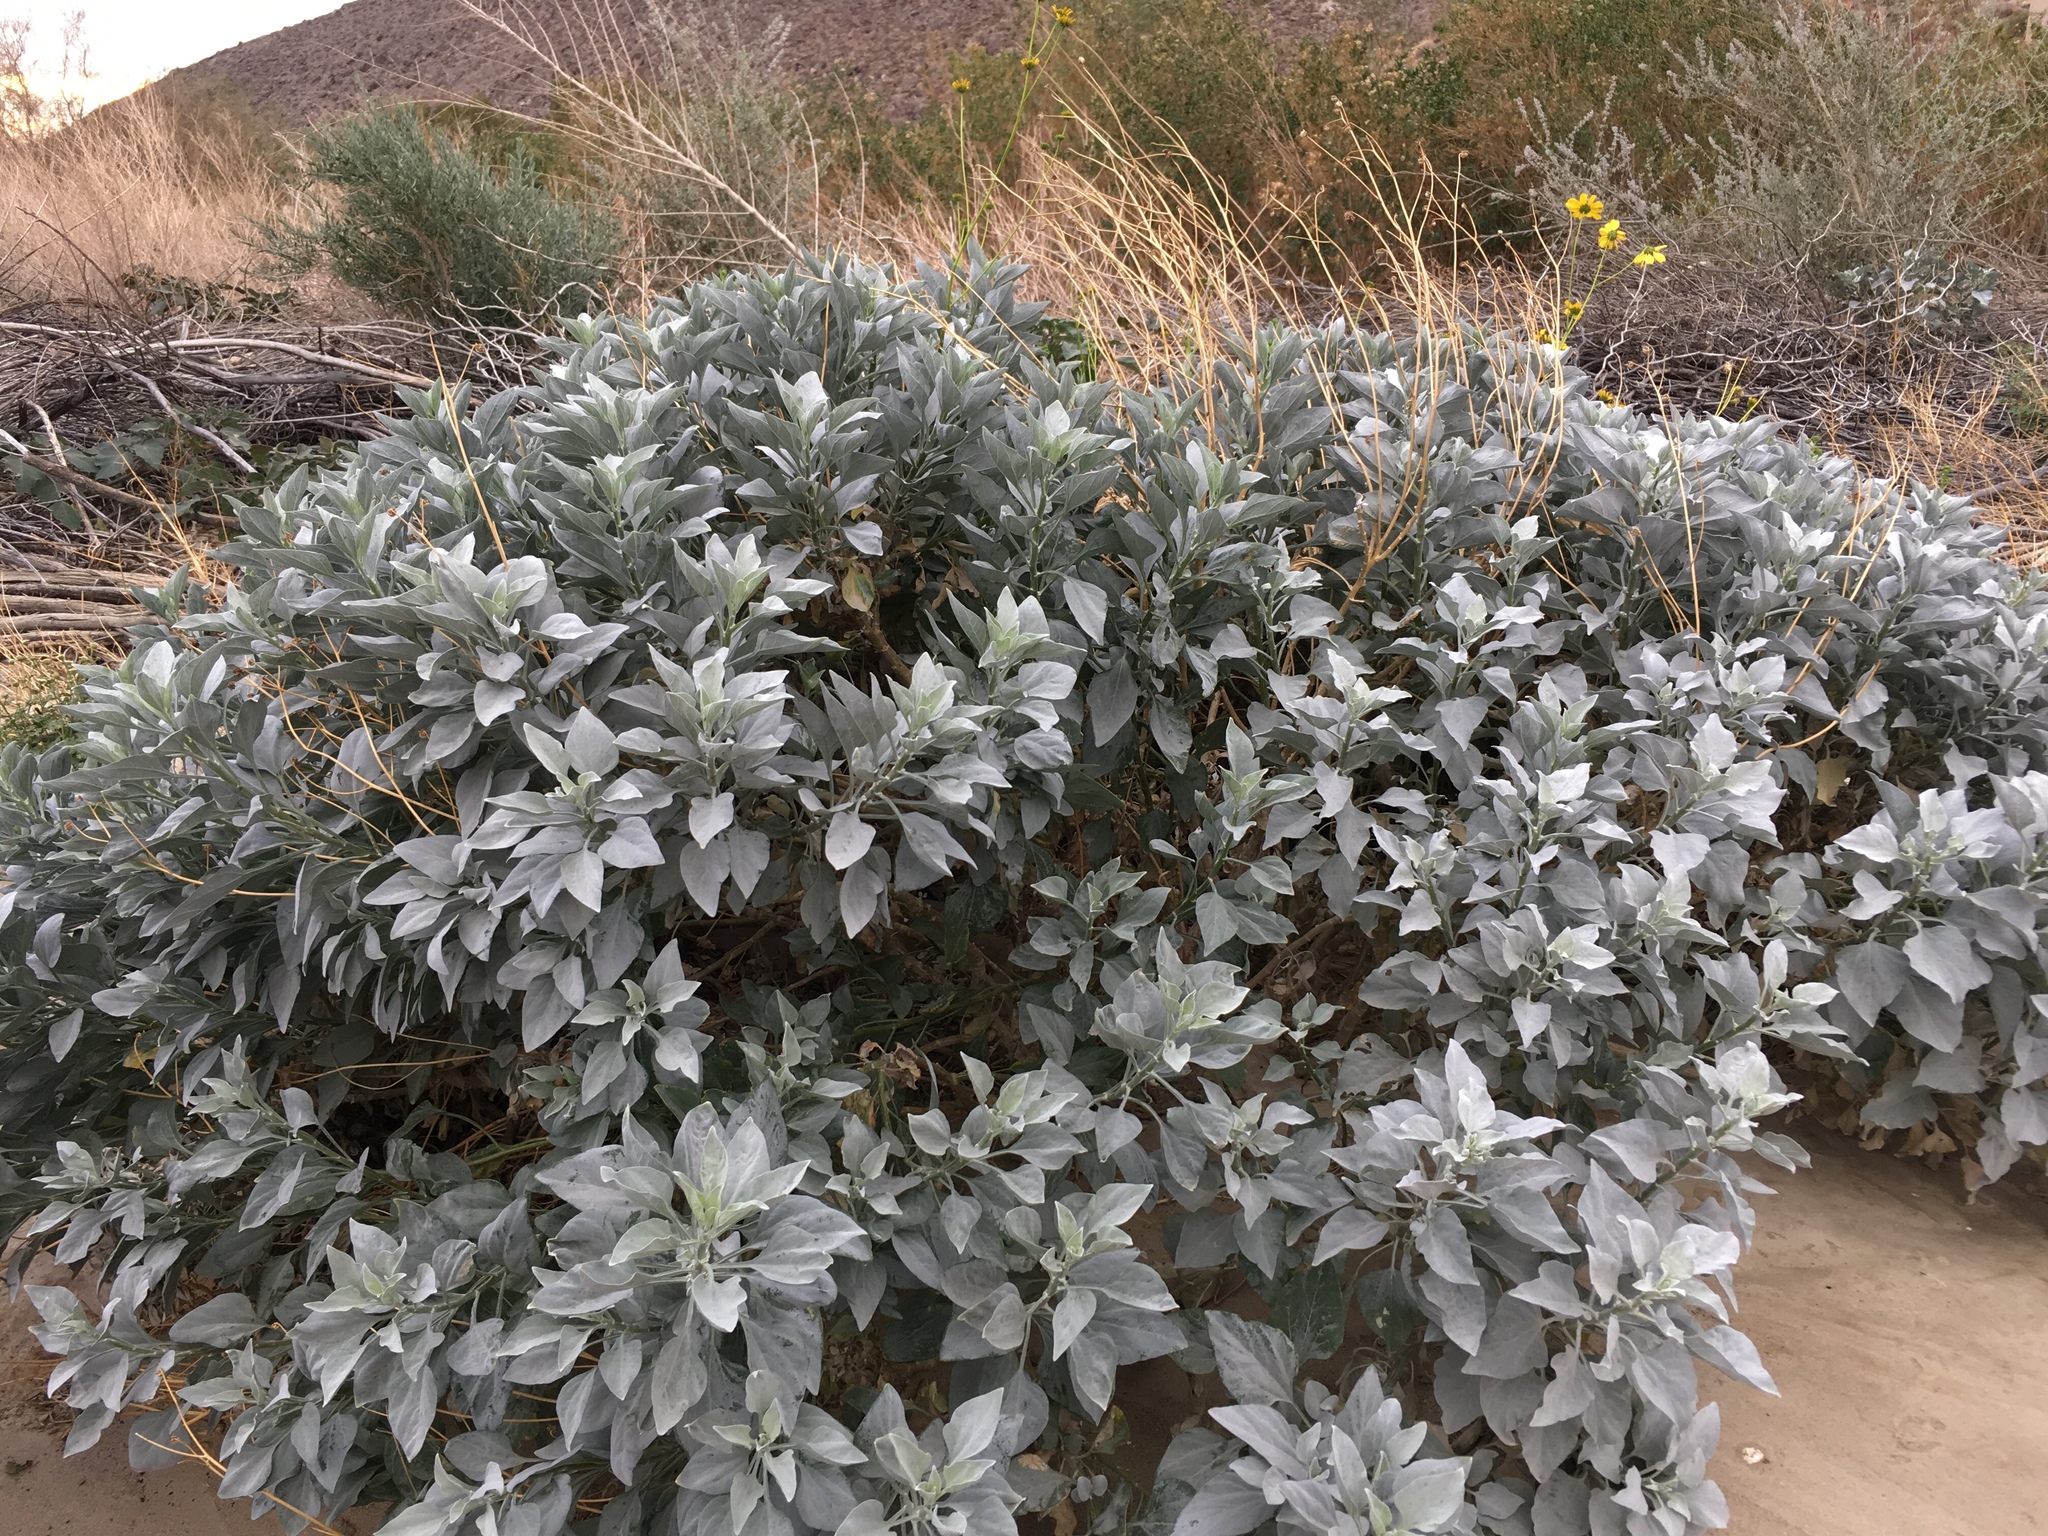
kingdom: Plantae
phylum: Tracheophyta
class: Magnoliopsida
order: Asterales
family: Asteraceae
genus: Encelia
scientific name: Encelia farinosa
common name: Brittlebush
